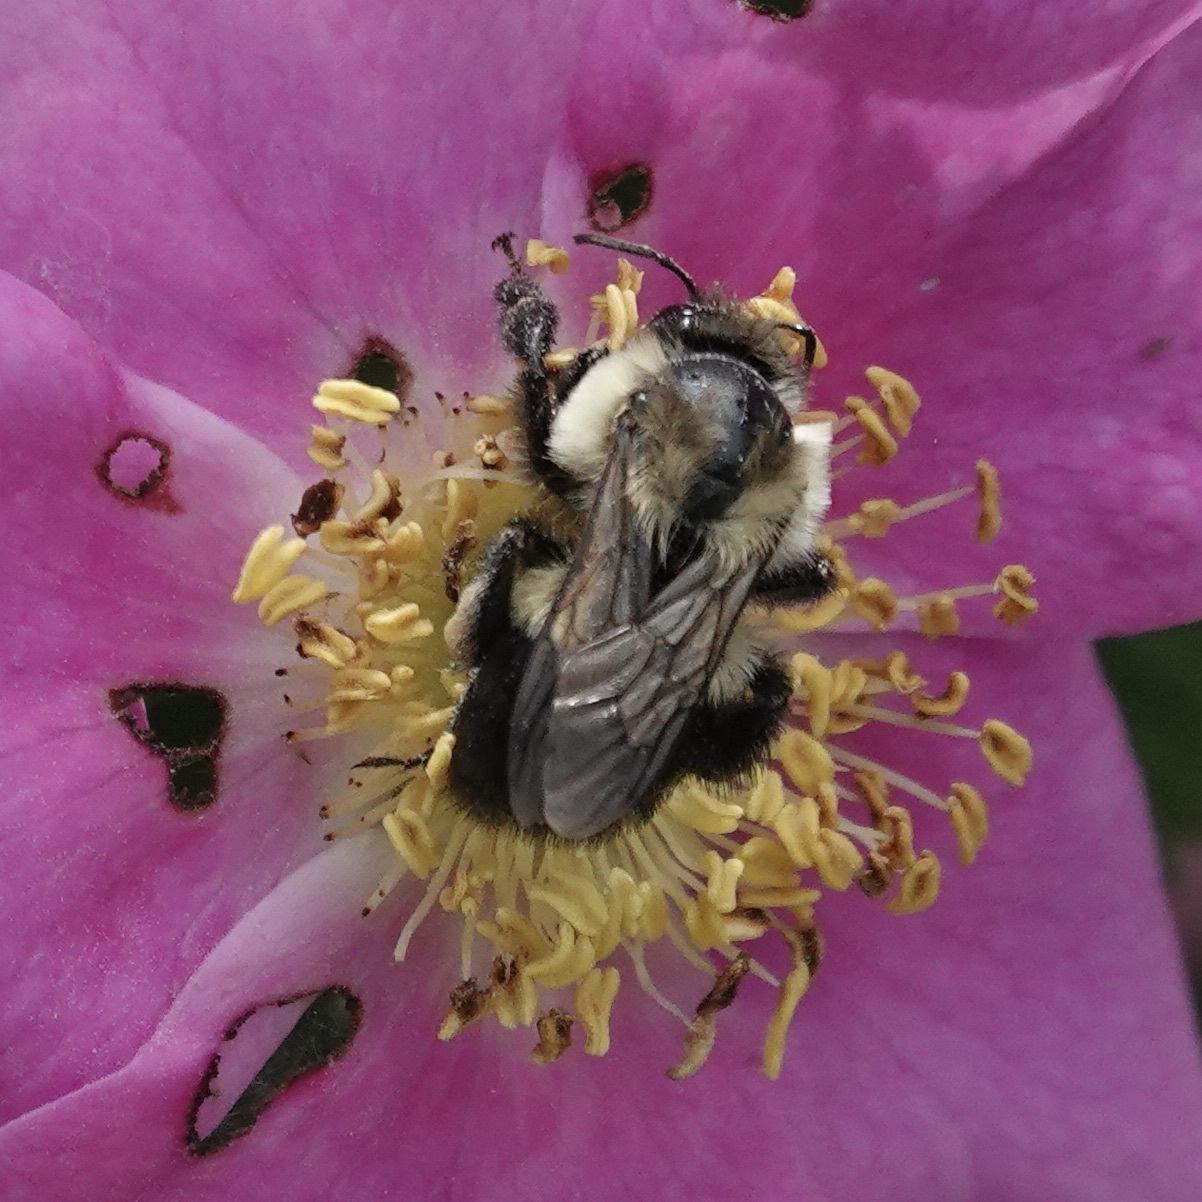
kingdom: Animalia
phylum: Arthropoda
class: Insecta
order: Hymenoptera
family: Apidae
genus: Bombus
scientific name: Bombus impatiens
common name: Common eastern bumble bee
